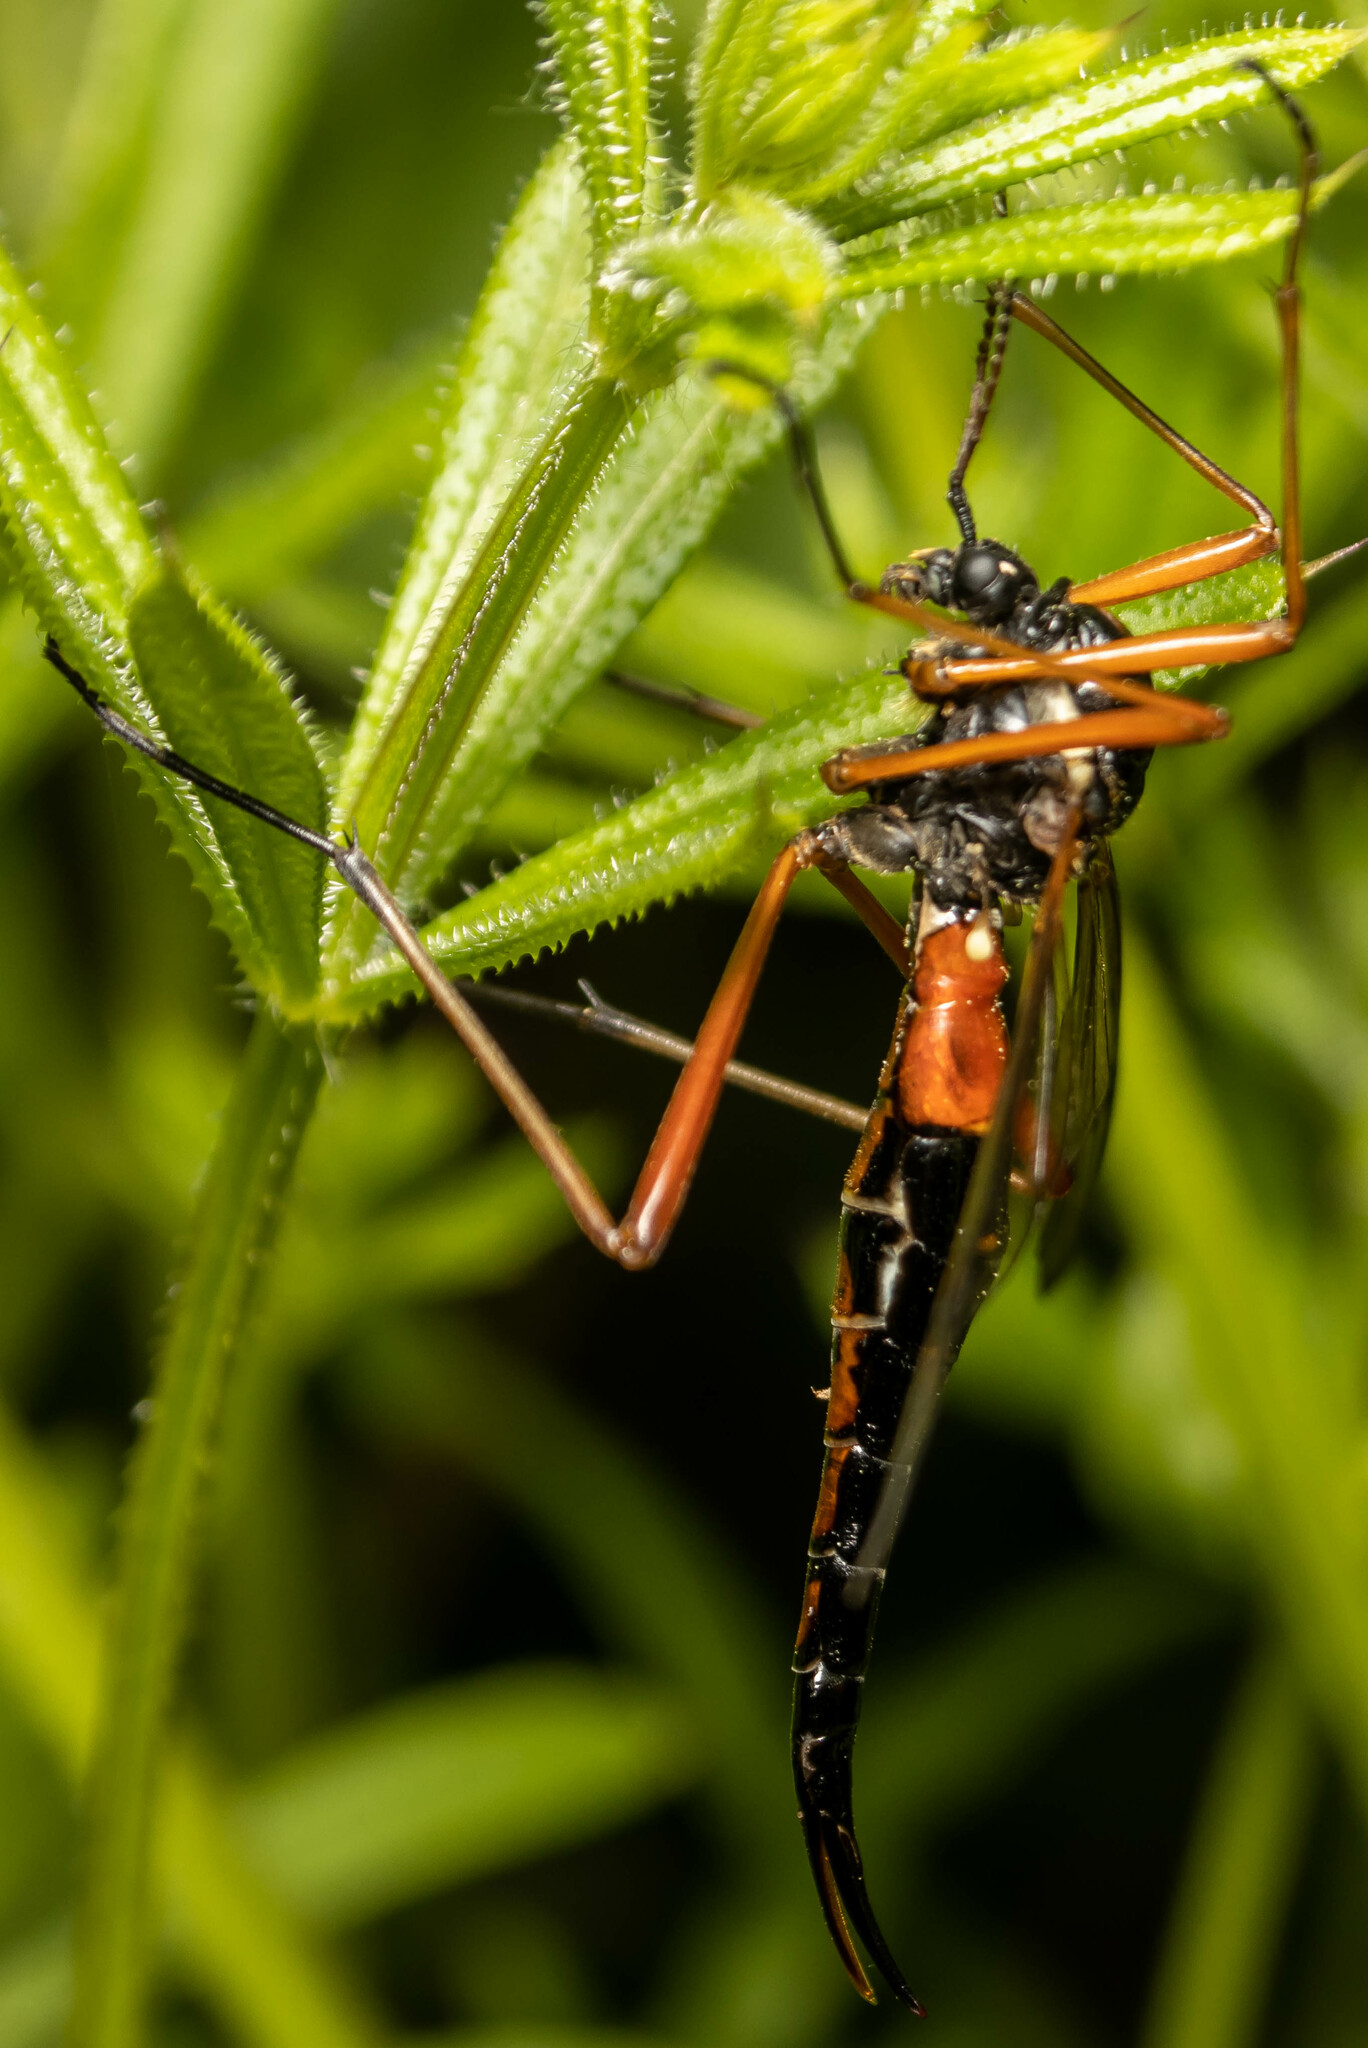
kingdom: Animalia
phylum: Arthropoda
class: Insecta
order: Diptera
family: Tipulidae
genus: Tanyptera
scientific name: Tanyptera atrata
